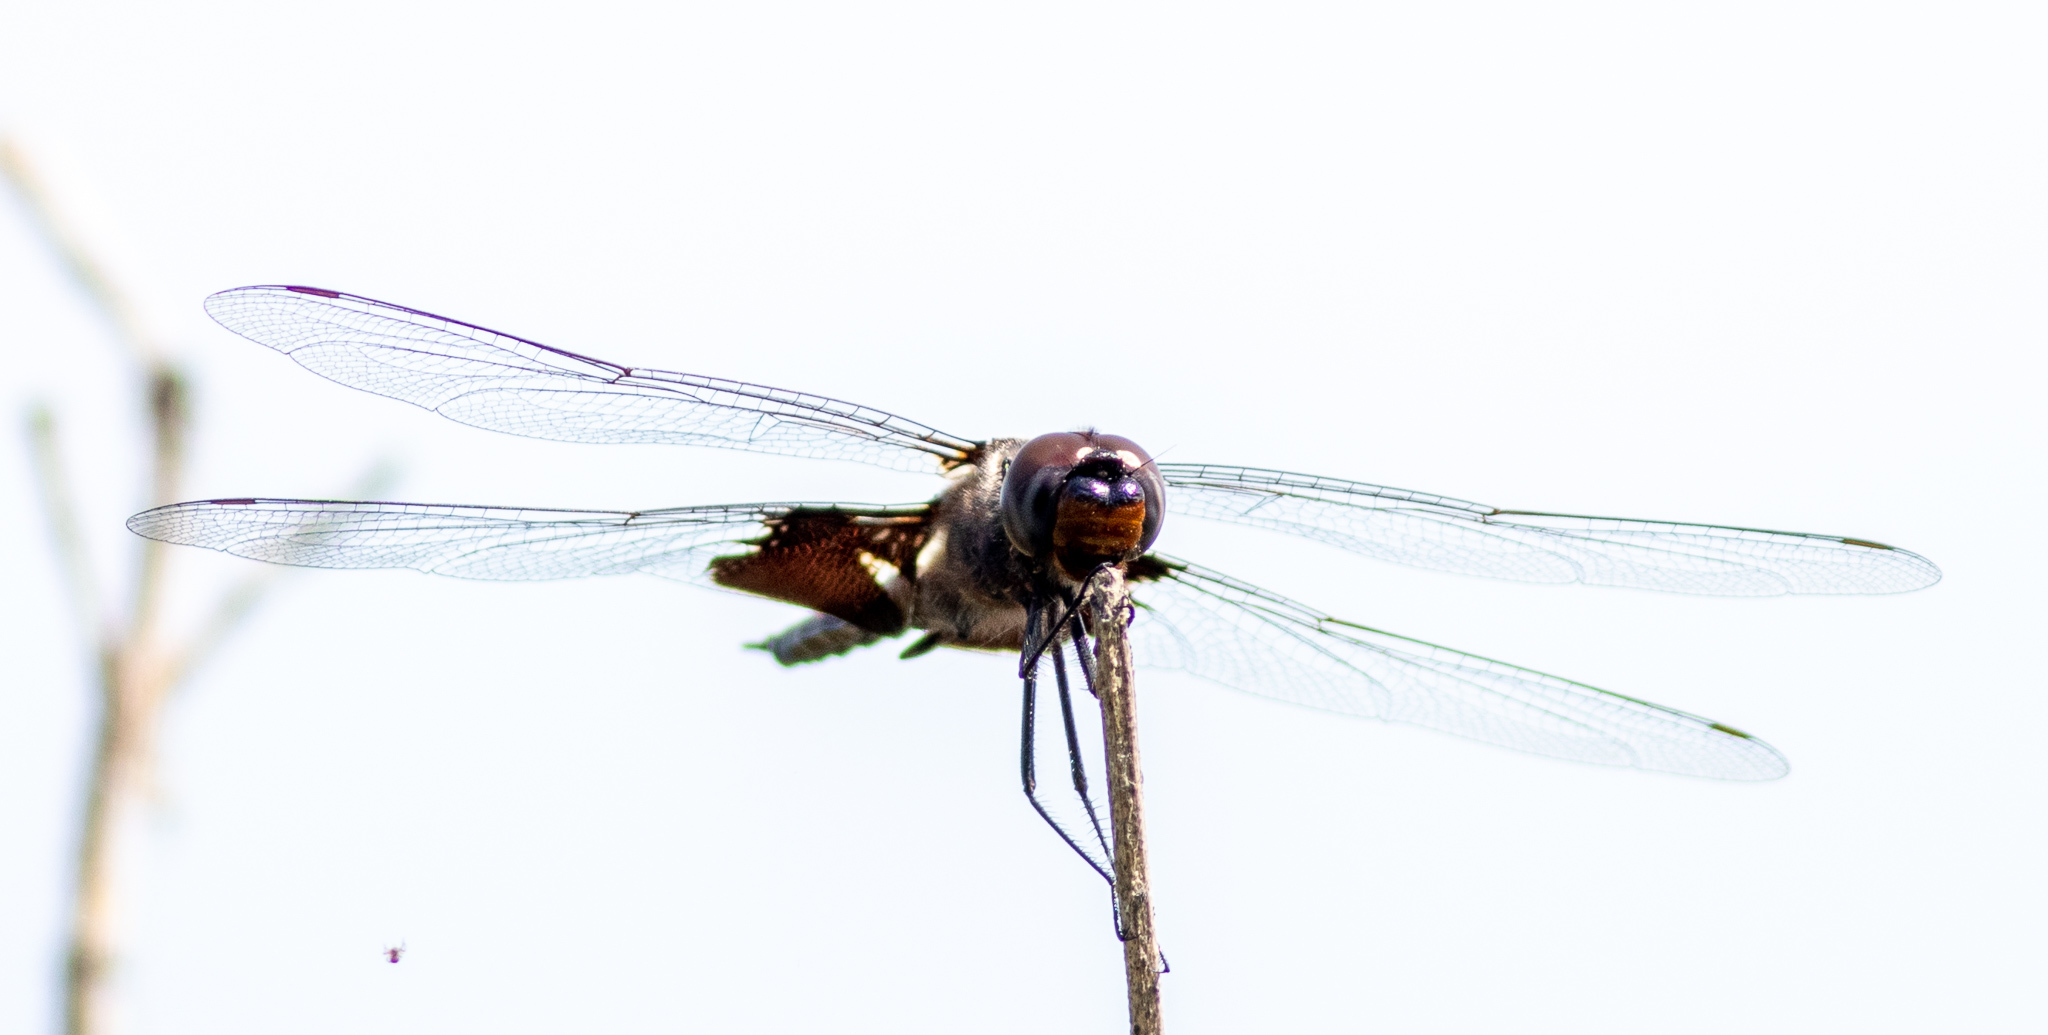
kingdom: Animalia
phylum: Arthropoda
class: Insecta
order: Odonata
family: Libellulidae
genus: Tramea
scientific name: Tramea lacerata
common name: Black saddlebags
